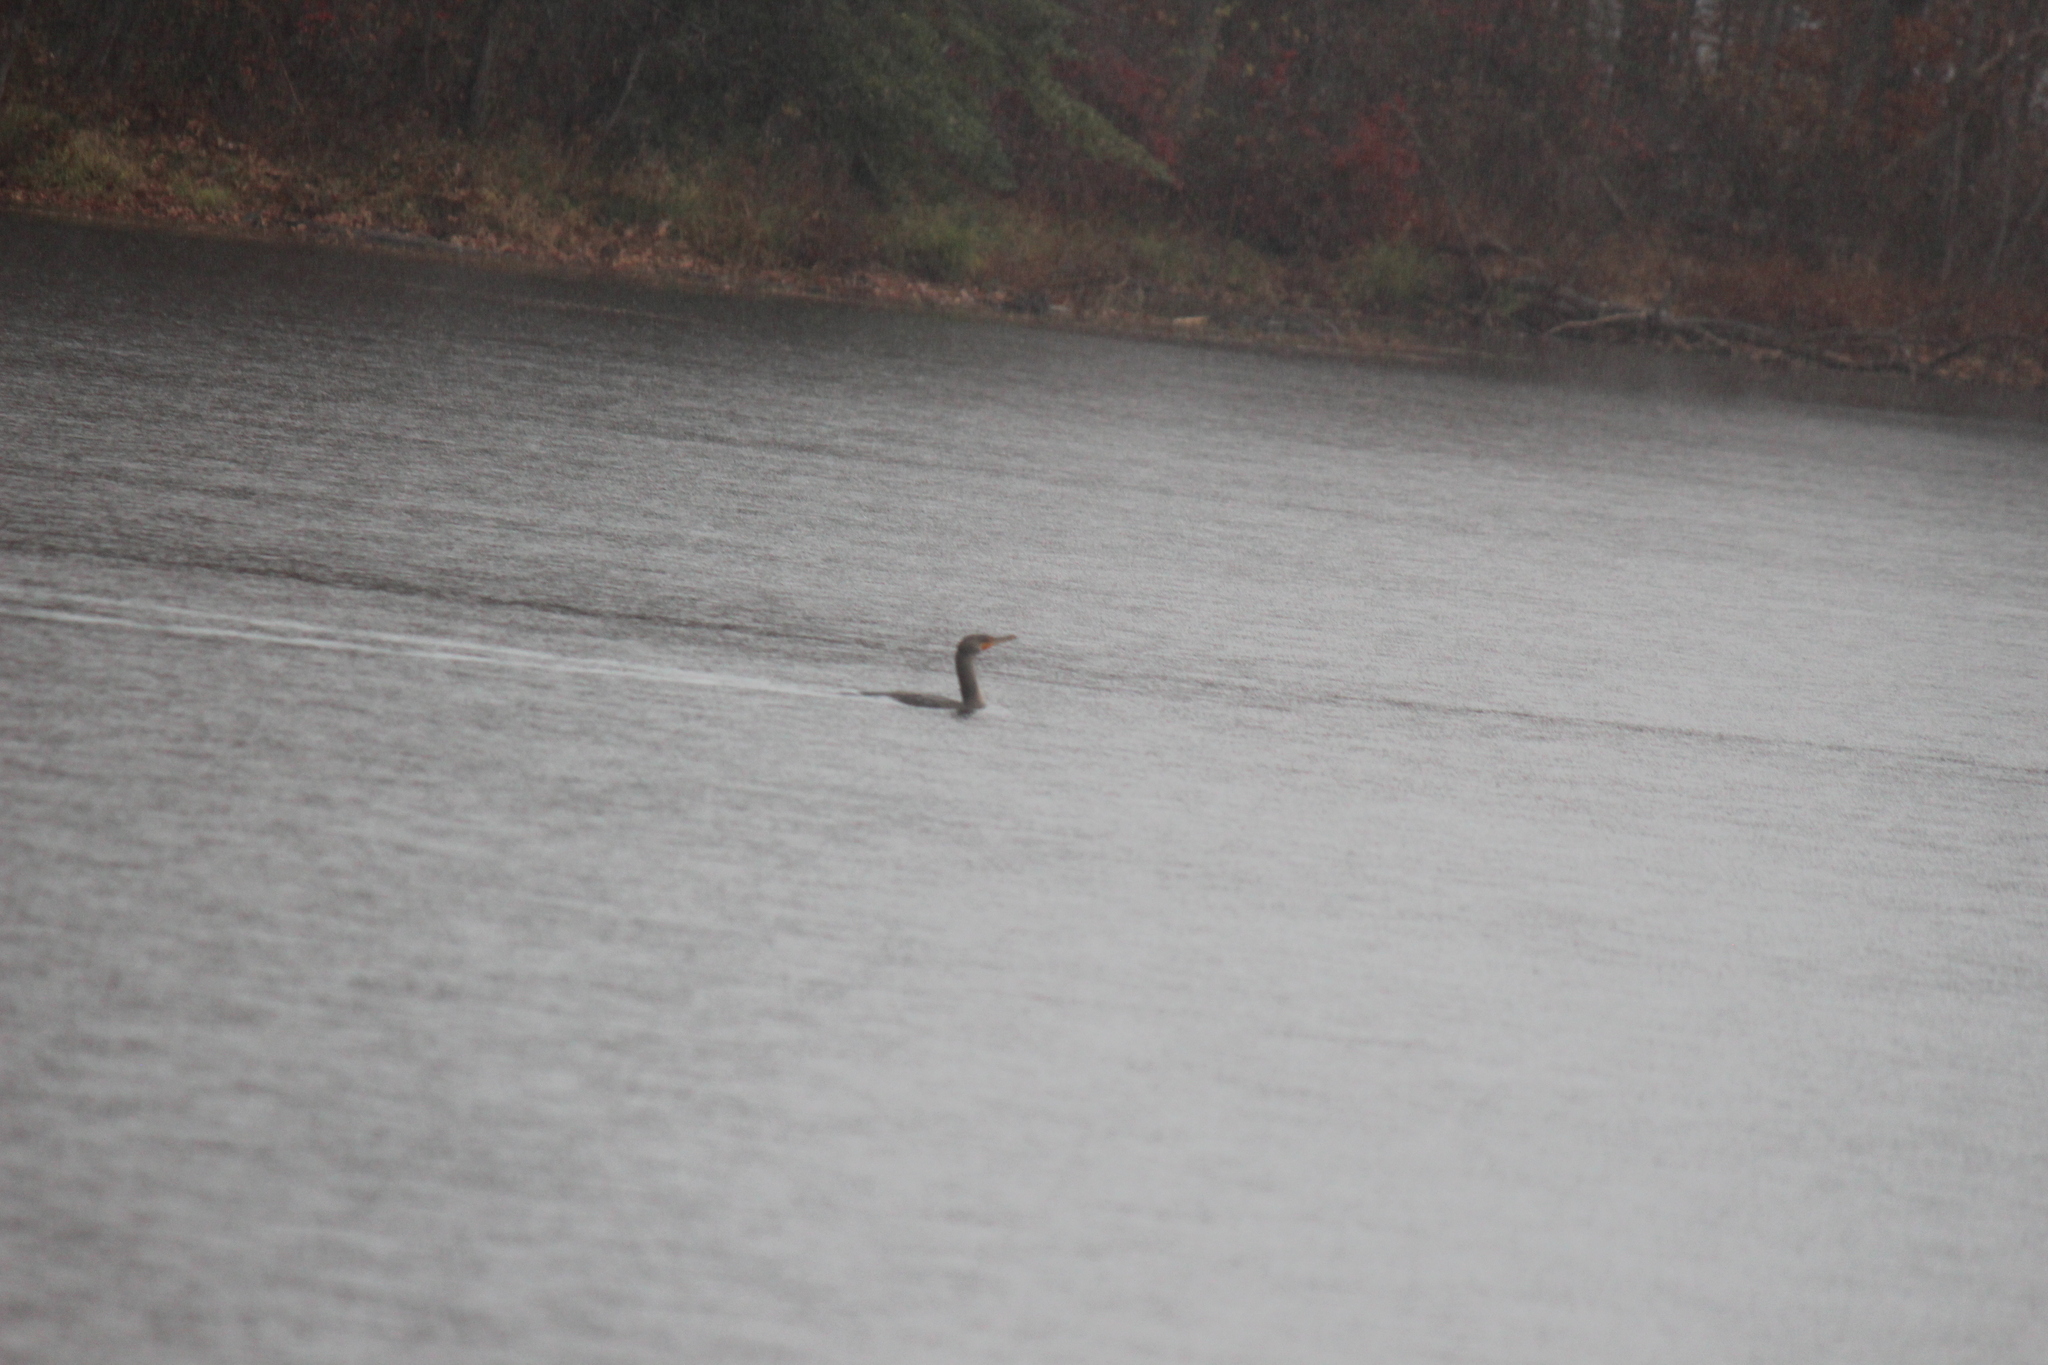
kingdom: Animalia
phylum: Chordata
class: Aves
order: Suliformes
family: Phalacrocoracidae
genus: Phalacrocorax
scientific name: Phalacrocorax auritus
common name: Double-crested cormorant
